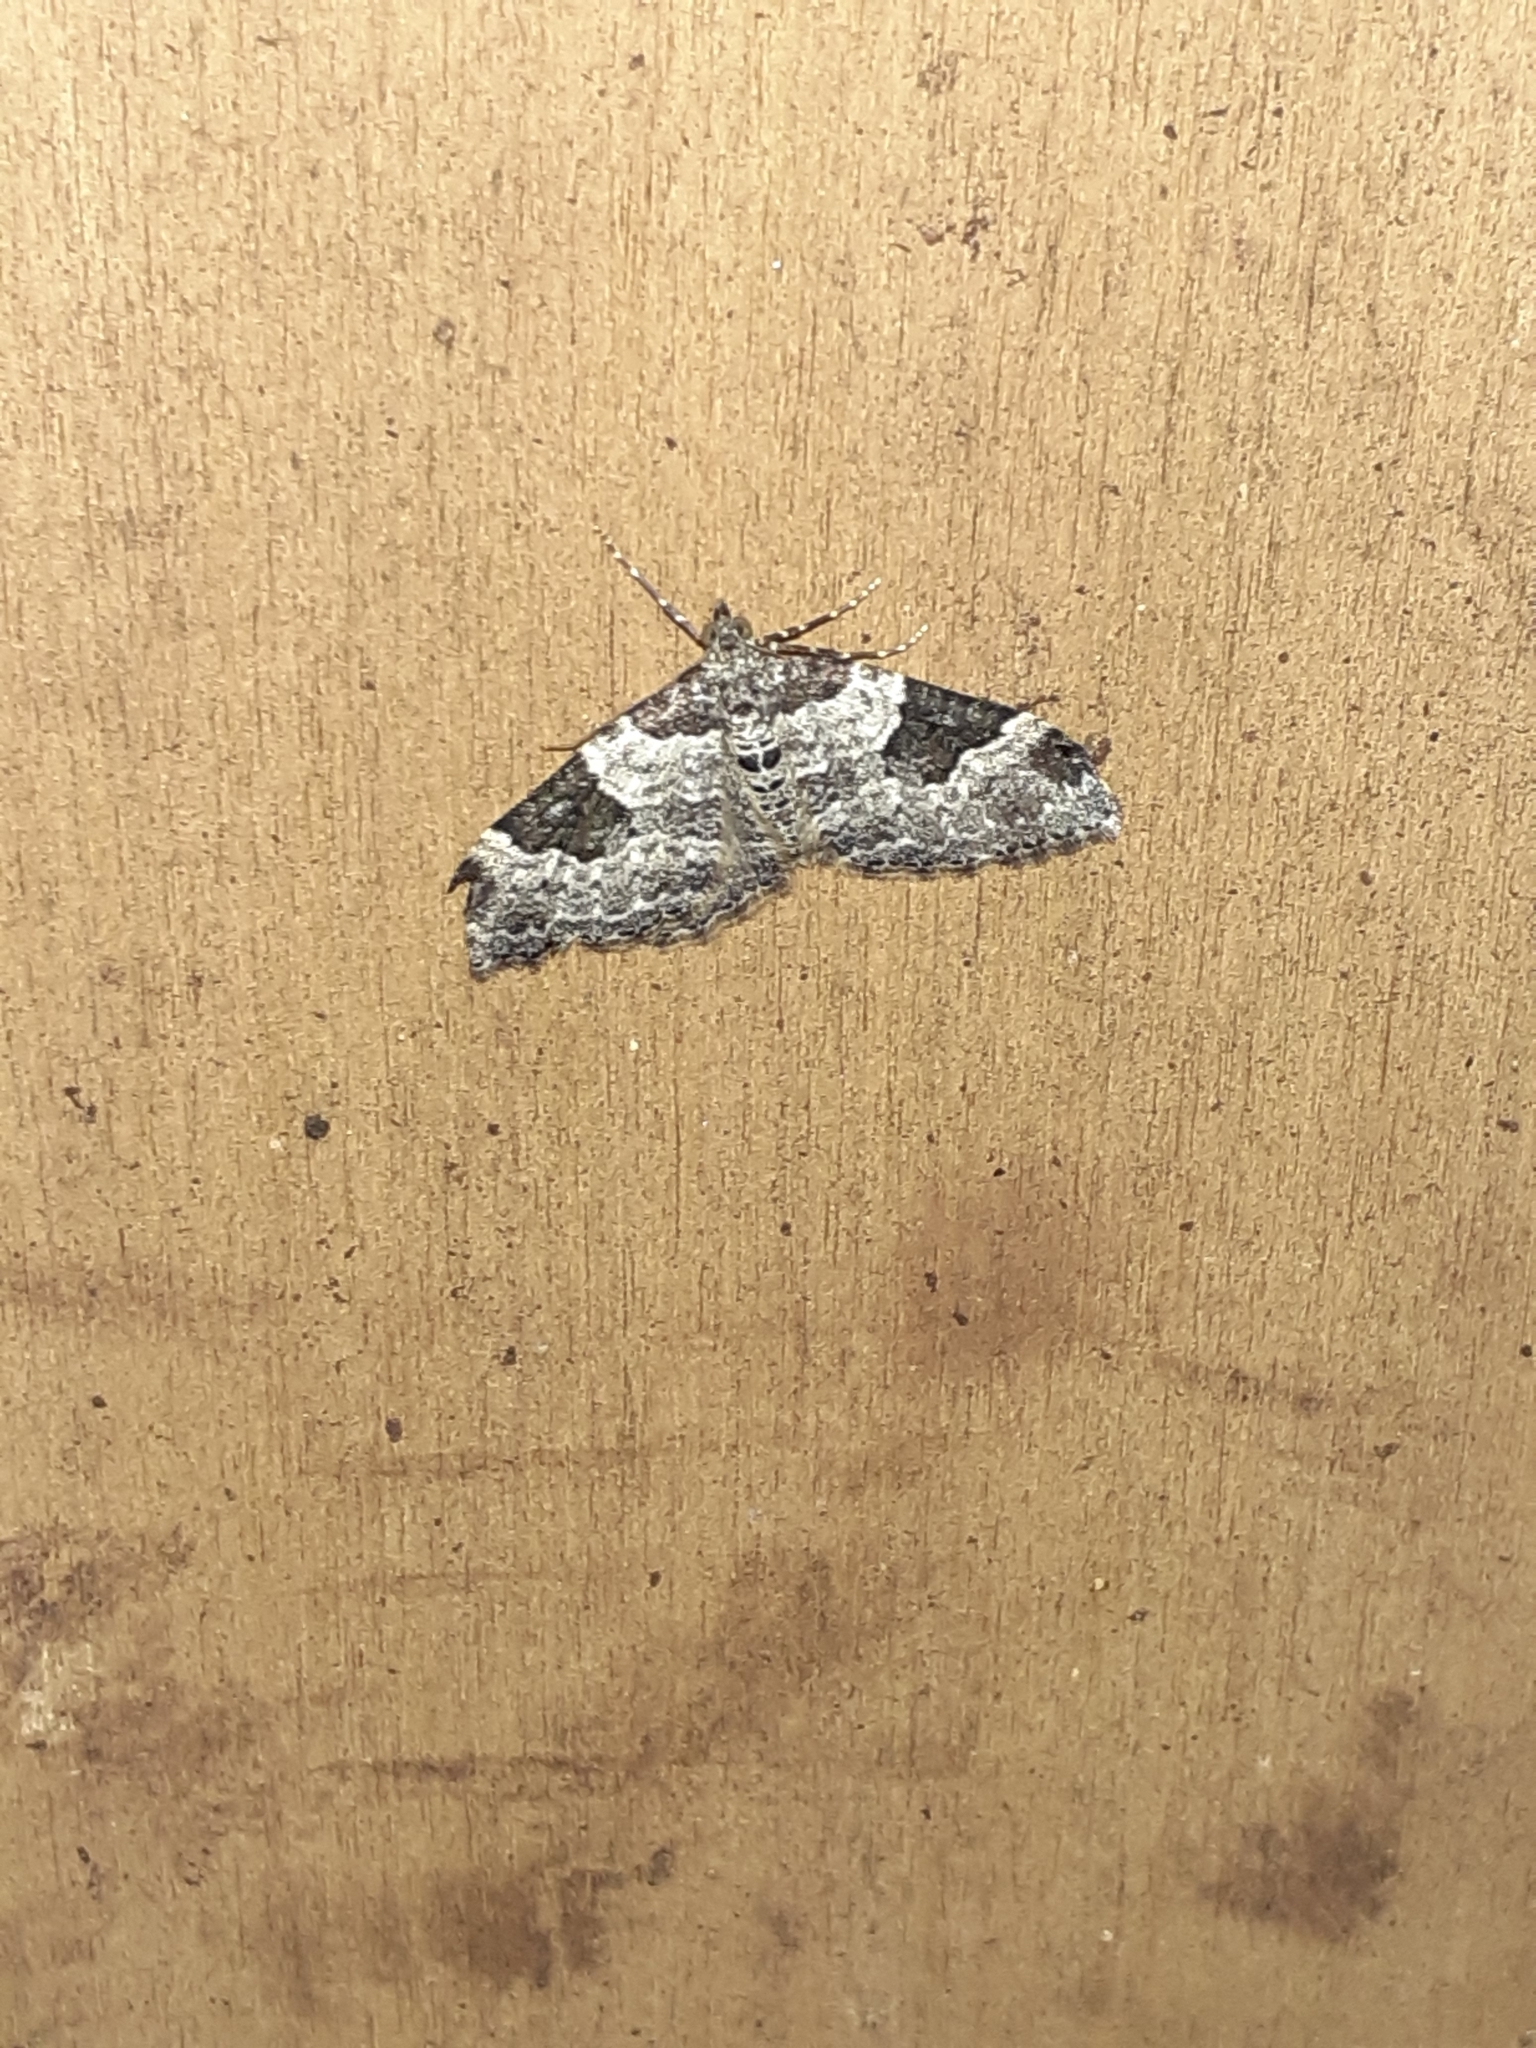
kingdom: Animalia
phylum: Arthropoda
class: Insecta
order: Lepidoptera
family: Geometridae
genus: Xanthorhoe
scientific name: Xanthorhoe fluctuata
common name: Garden carpet
